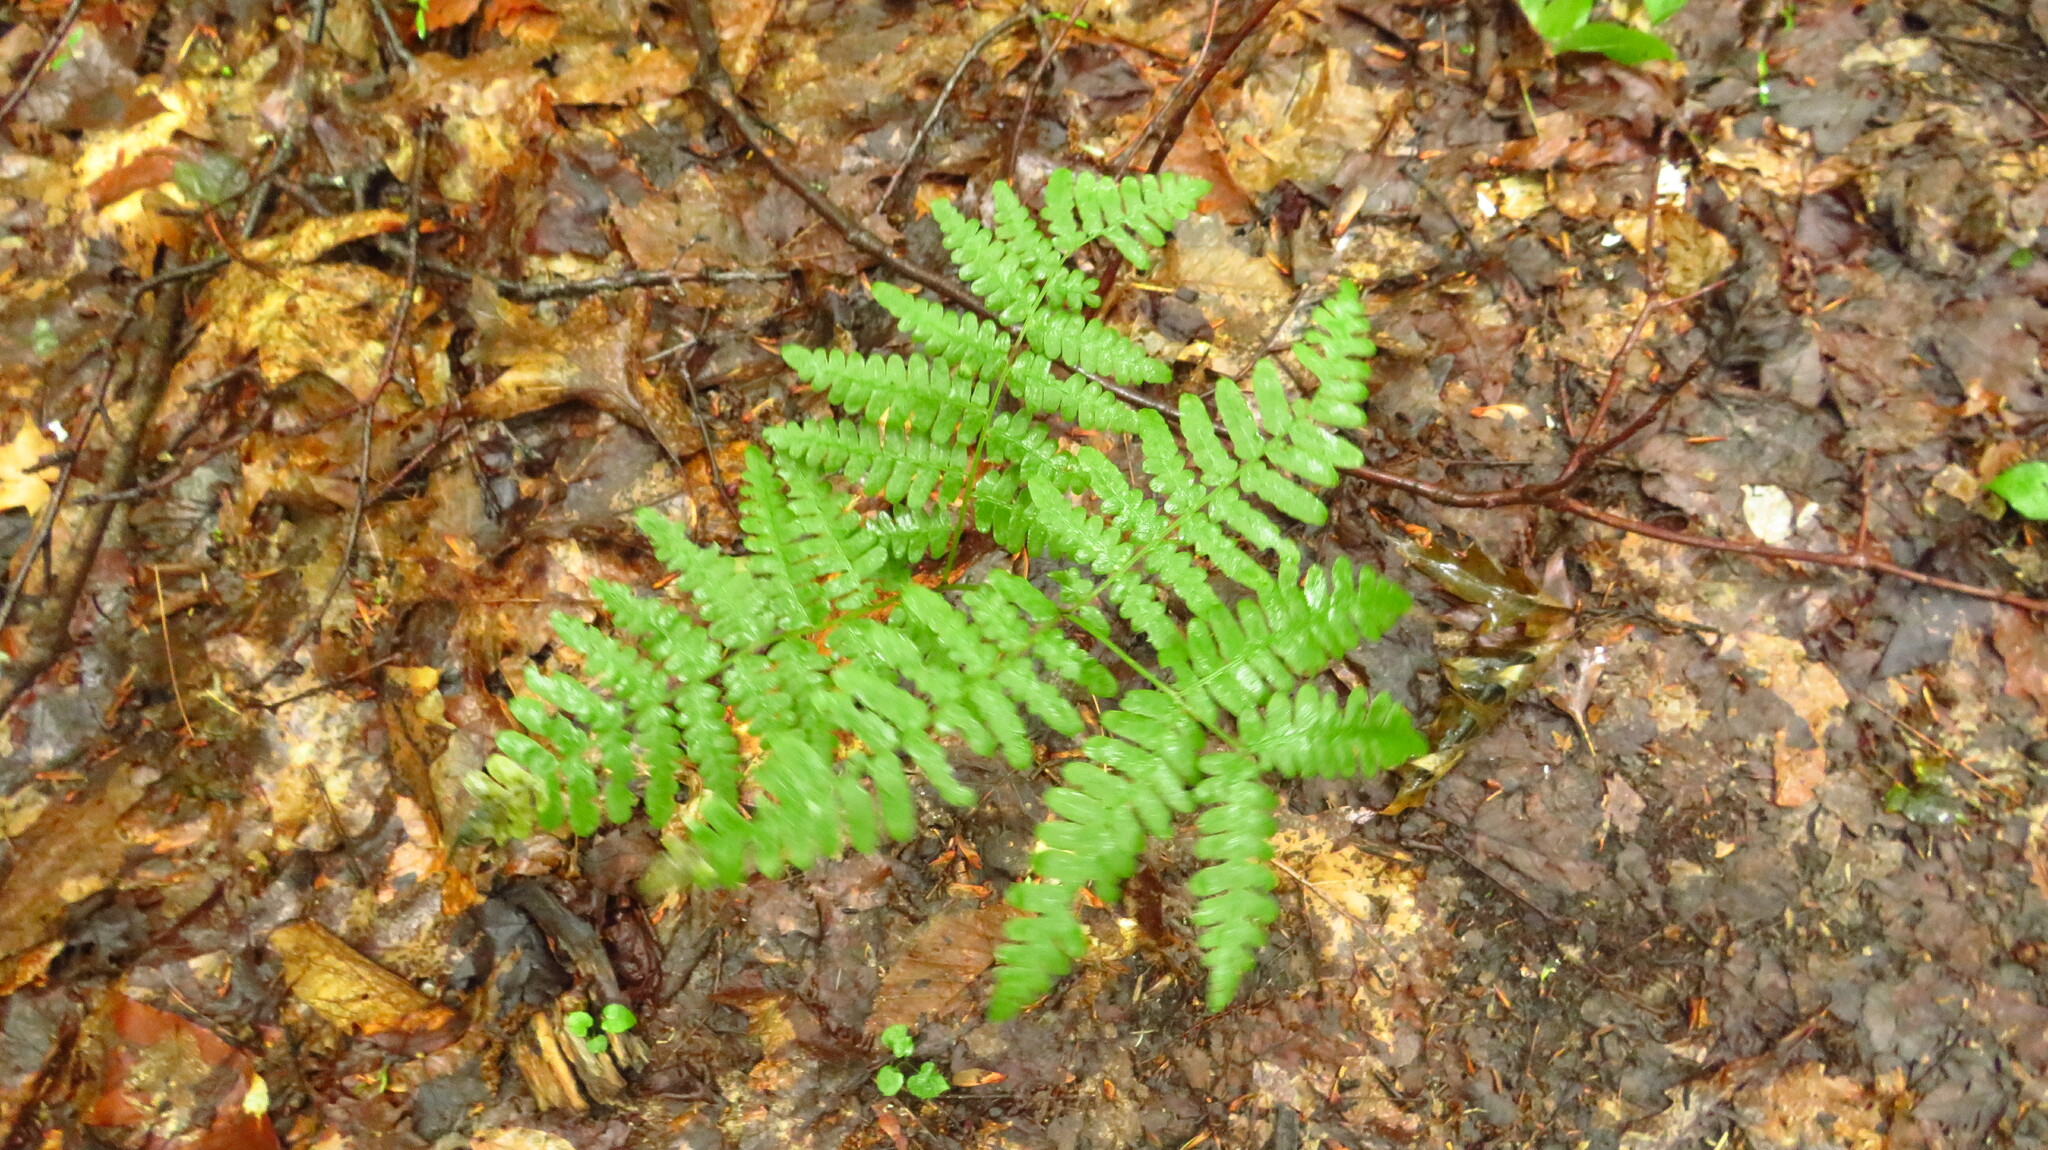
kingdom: Plantae
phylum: Tracheophyta
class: Polypodiopsida
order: Polypodiales
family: Dennstaedtiaceae
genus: Pteridium
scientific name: Pteridium aquilinum
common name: Bracken
